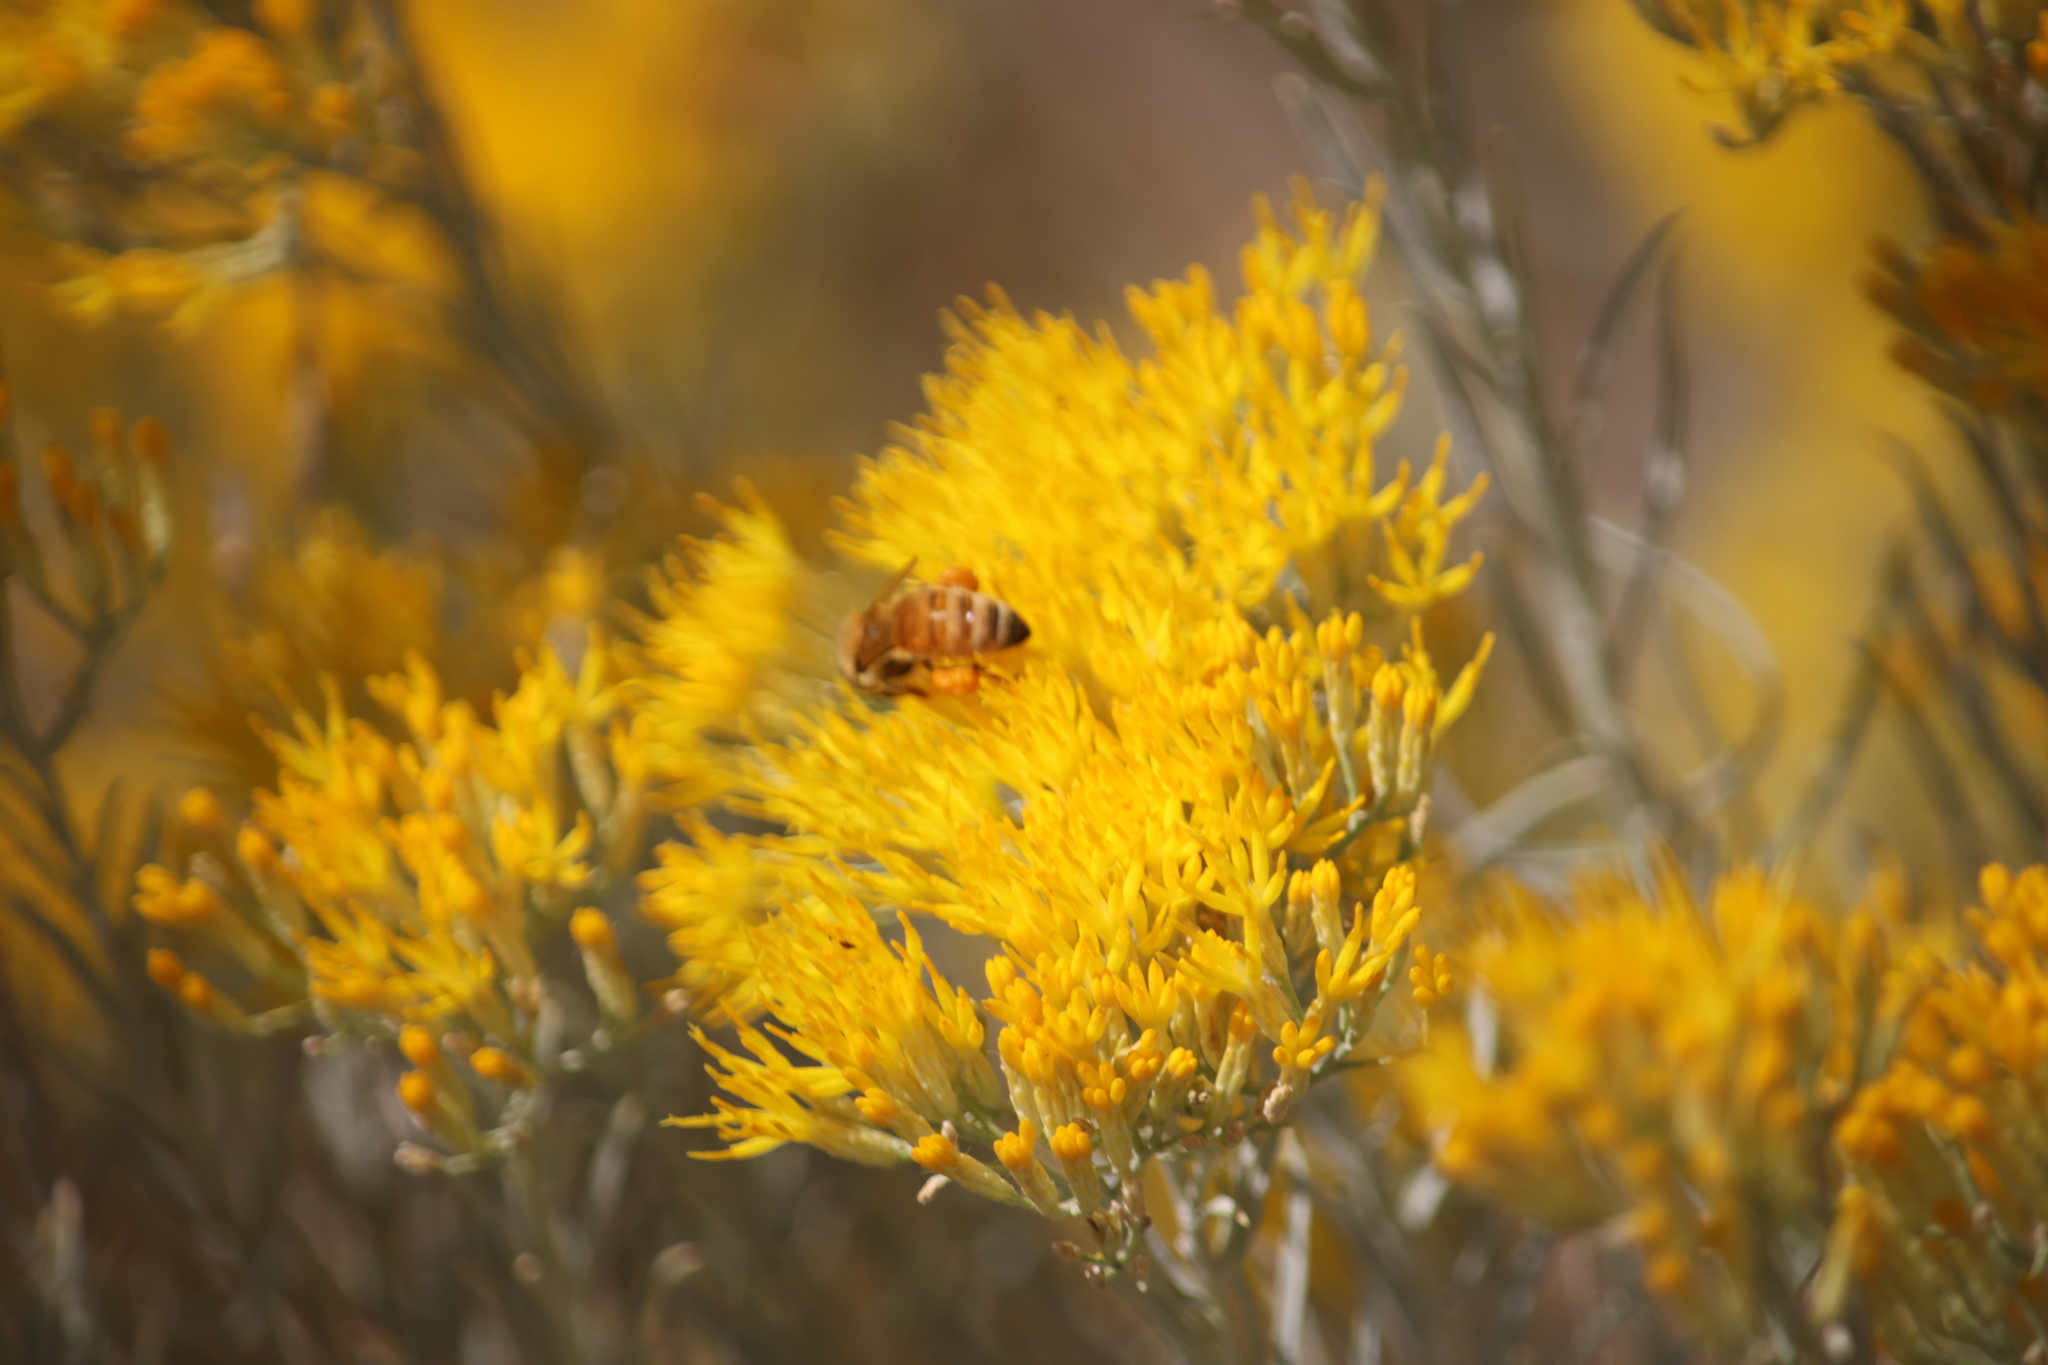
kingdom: Animalia
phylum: Arthropoda
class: Insecta
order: Hymenoptera
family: Apidae
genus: Apis
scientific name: Apis mellifera
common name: Honey bee
